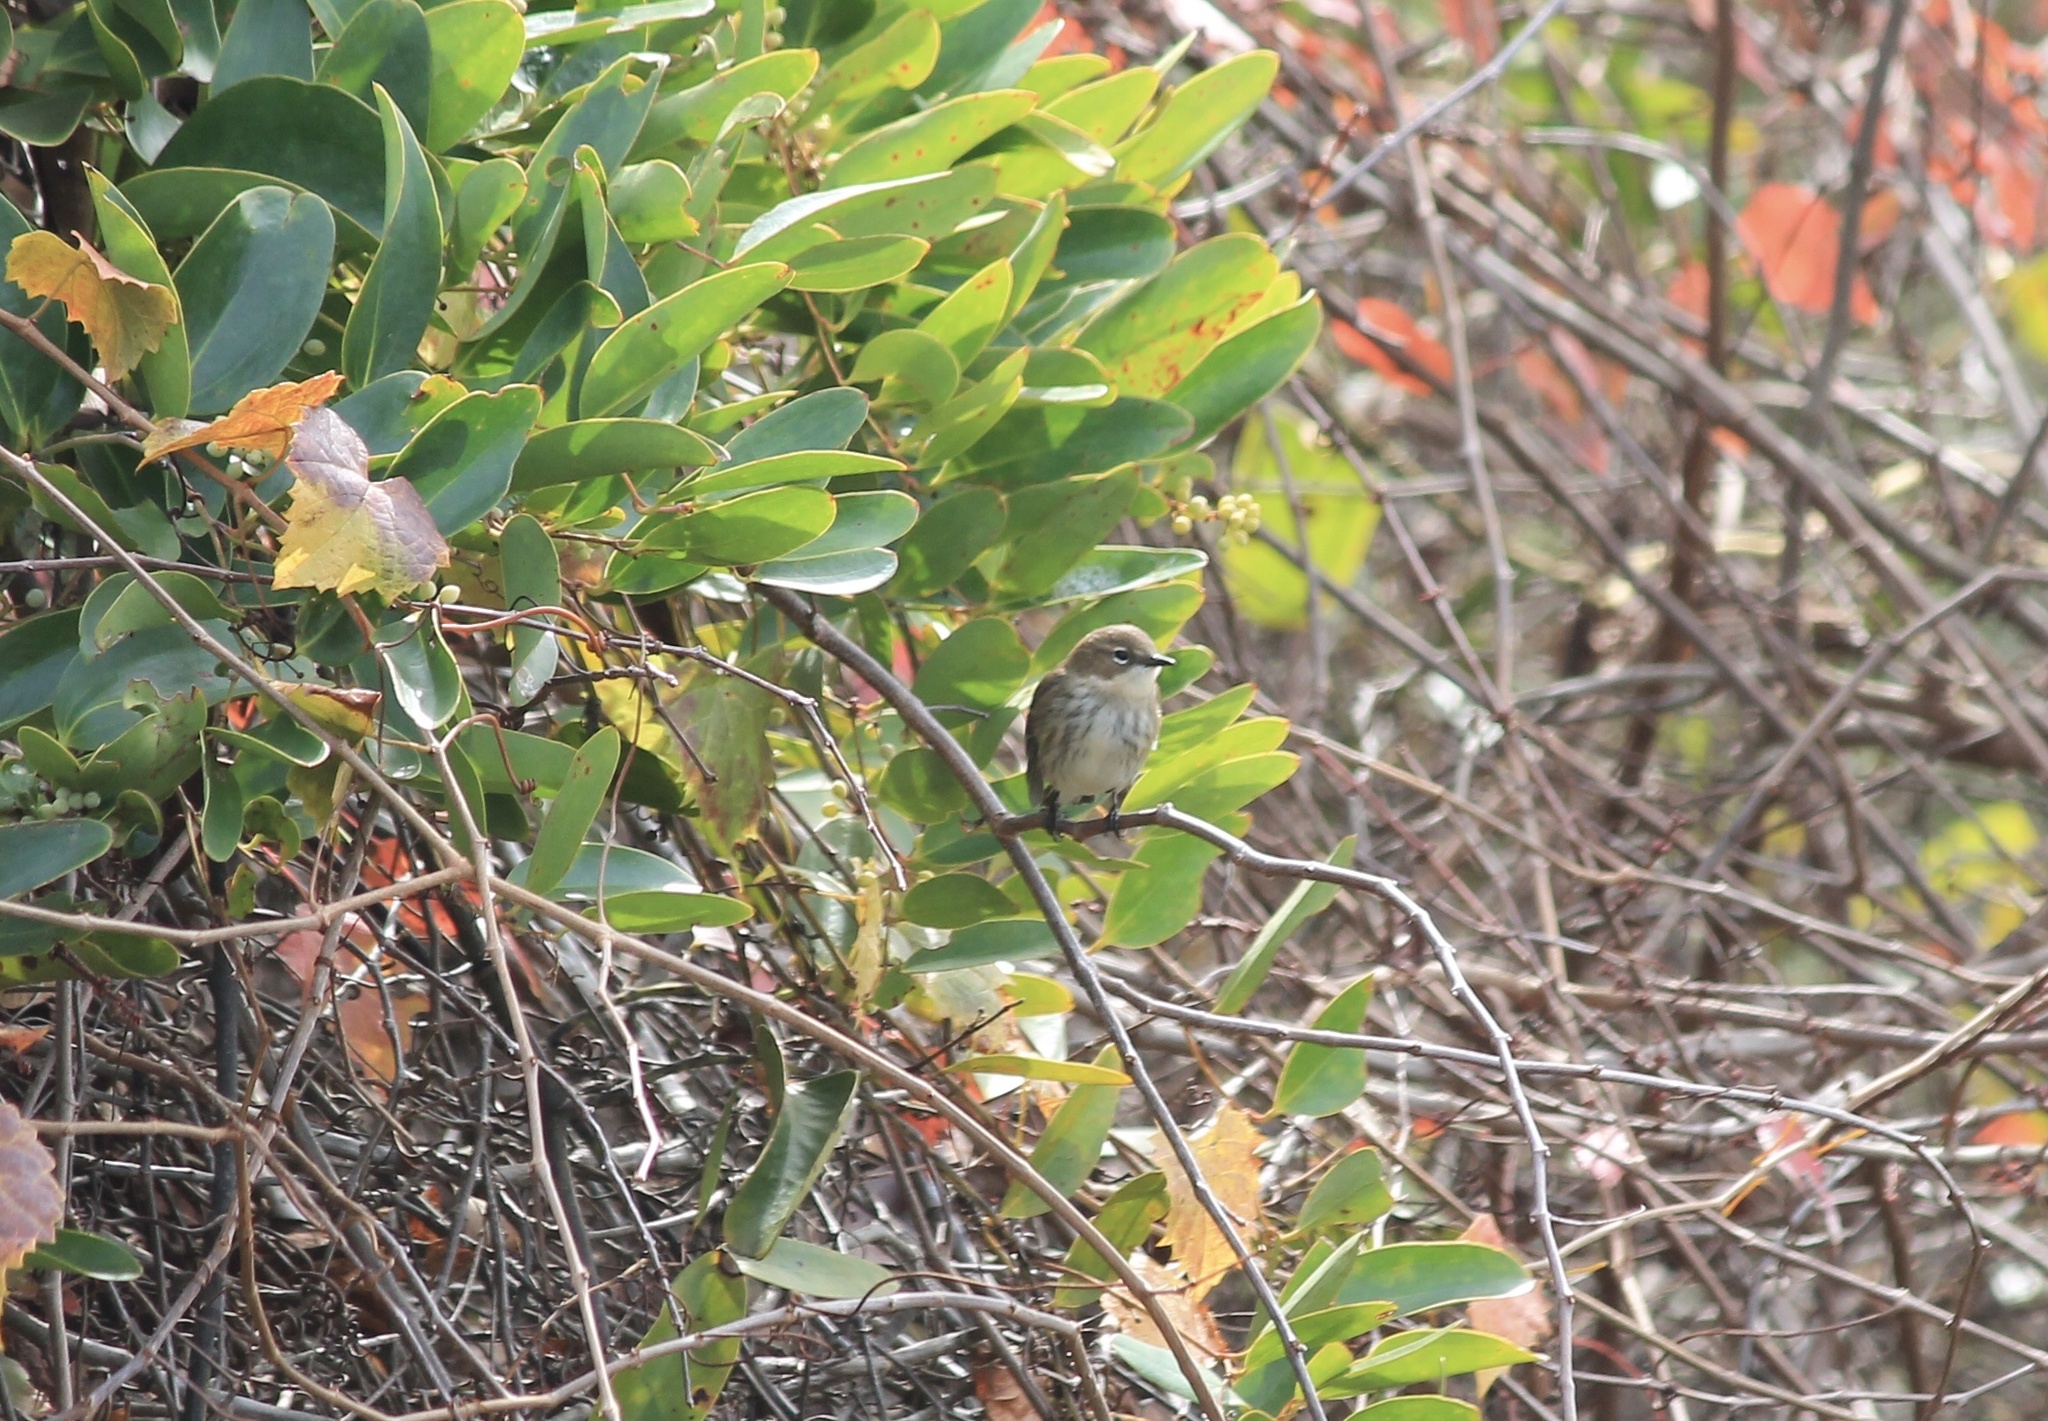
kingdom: Animalia
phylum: Chordata
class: Aves
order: Passeriformes
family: Parulidae
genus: Setophaga
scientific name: Setophaga coronata
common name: Myrtle warbler
